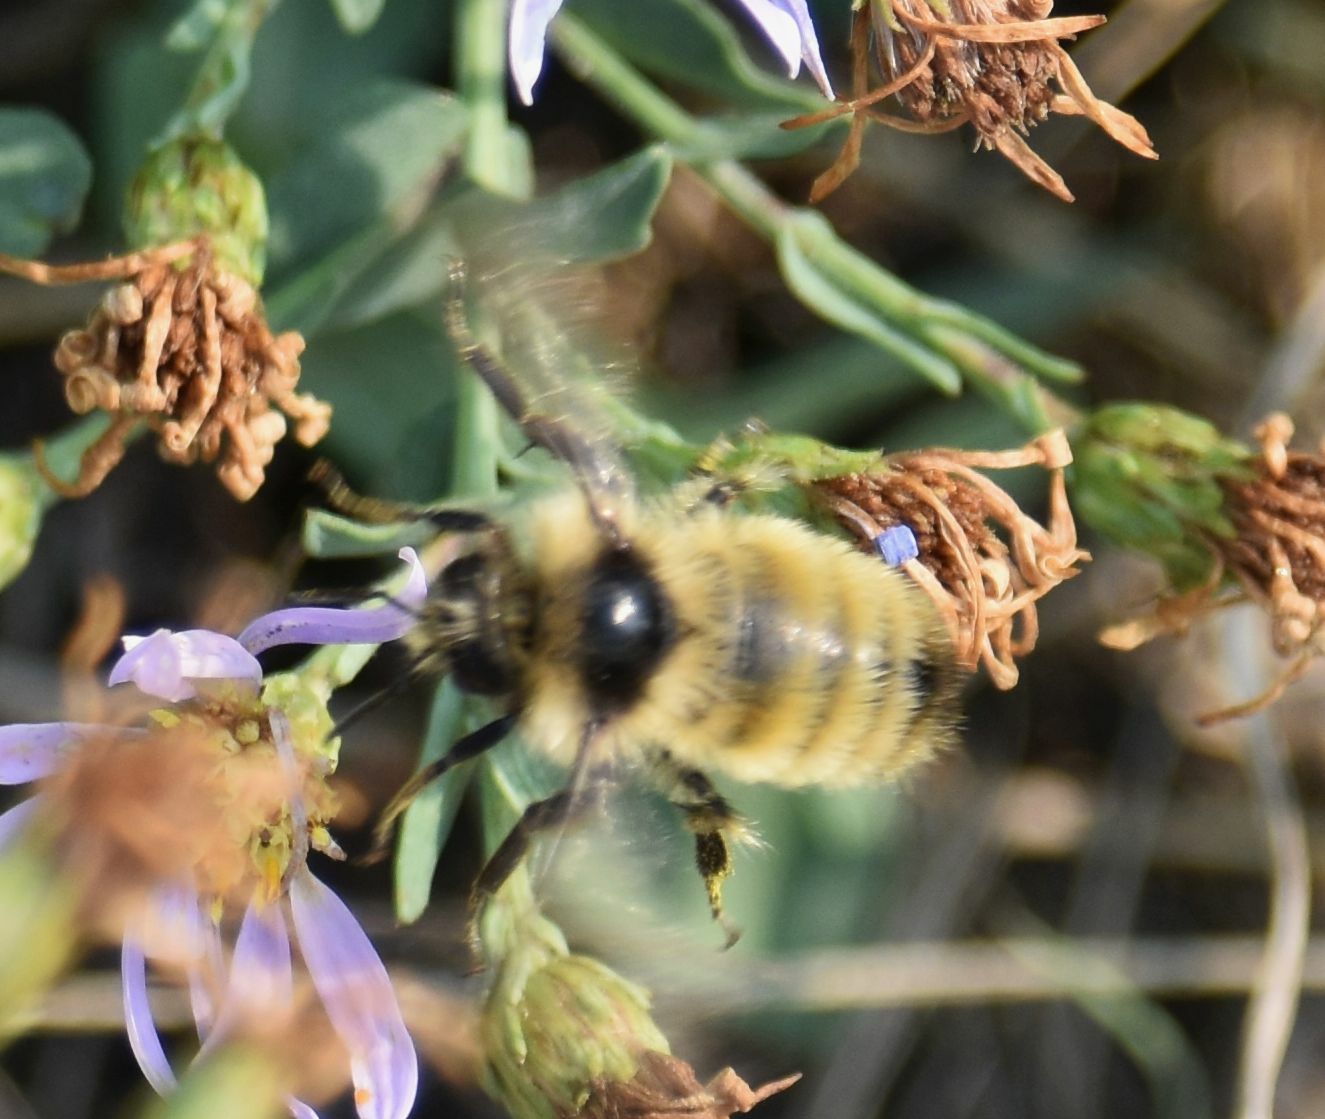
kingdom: Animalia
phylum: Arthropoda
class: Insecta
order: Hymenoptera
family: Apidae
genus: Bombus
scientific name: Bombus ternarius
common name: Tri-colored bumble bee
